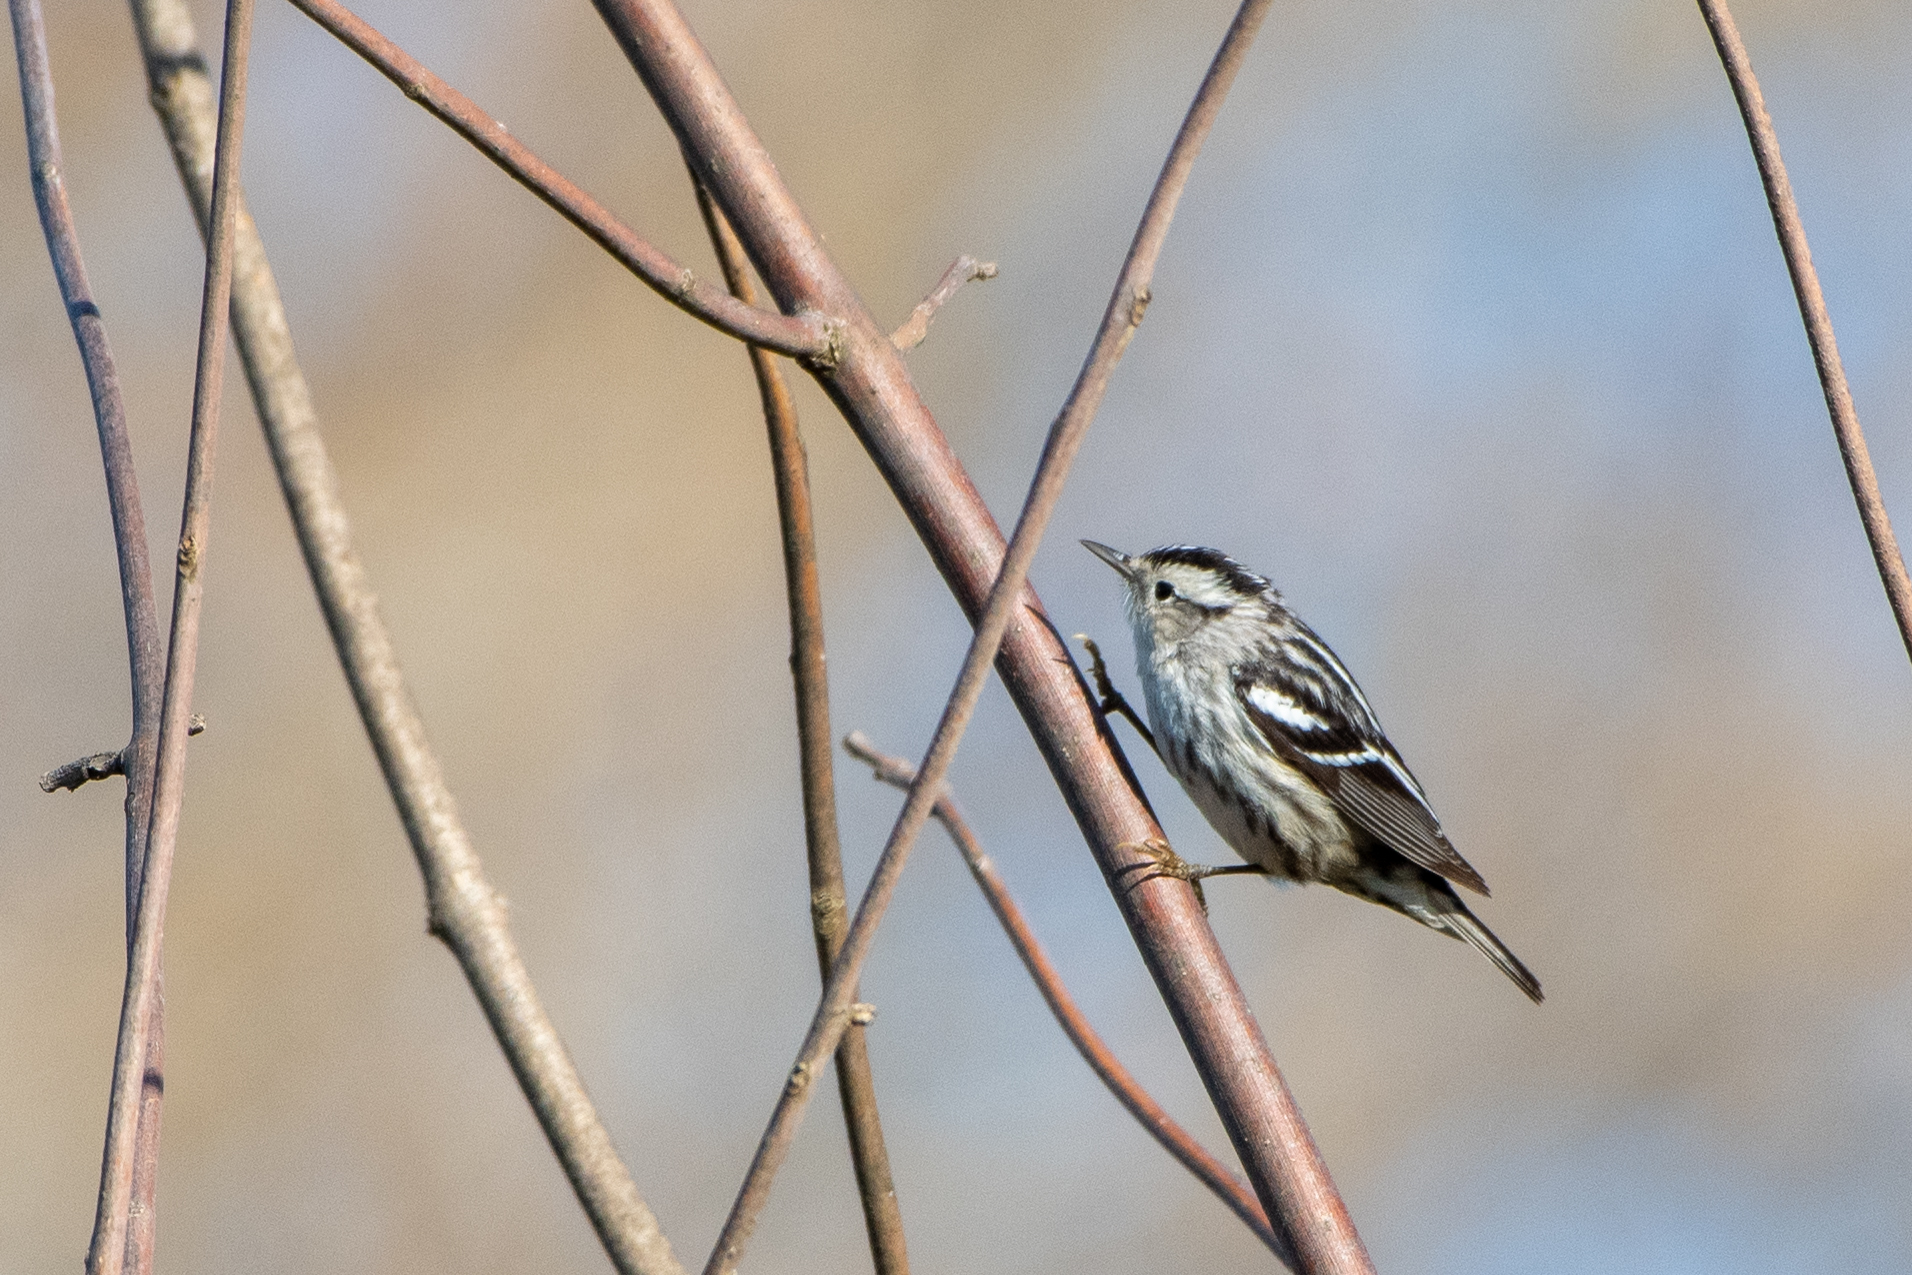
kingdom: Animalia
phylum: Chordata
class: Aves
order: Passeriformes
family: Parulidae
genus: Mniotilta
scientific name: Mniotilta varia
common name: Black-and-white warbler
